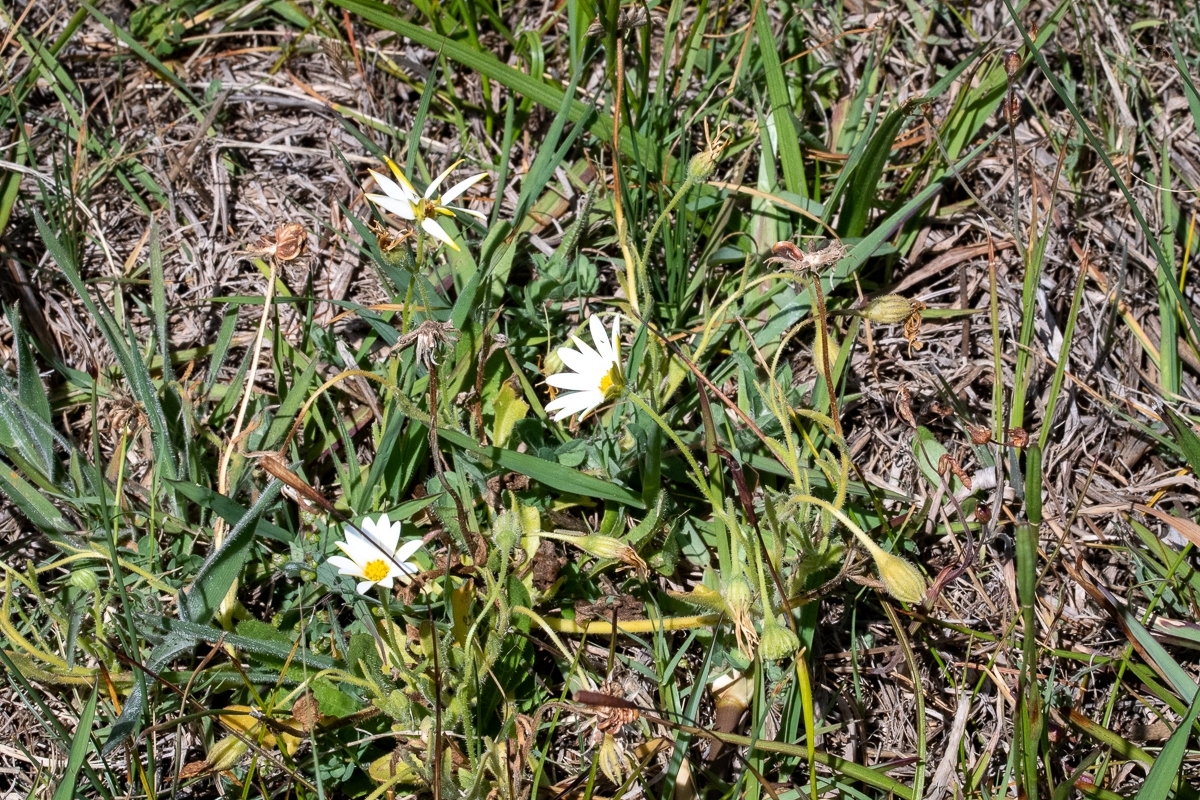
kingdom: Plantae
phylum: Tracheophyta
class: Magnoliopsida
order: Asterales
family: Asteraceae
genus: Dimorphotheca
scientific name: Dimorphotheca pluvialis
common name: Weather prophet
